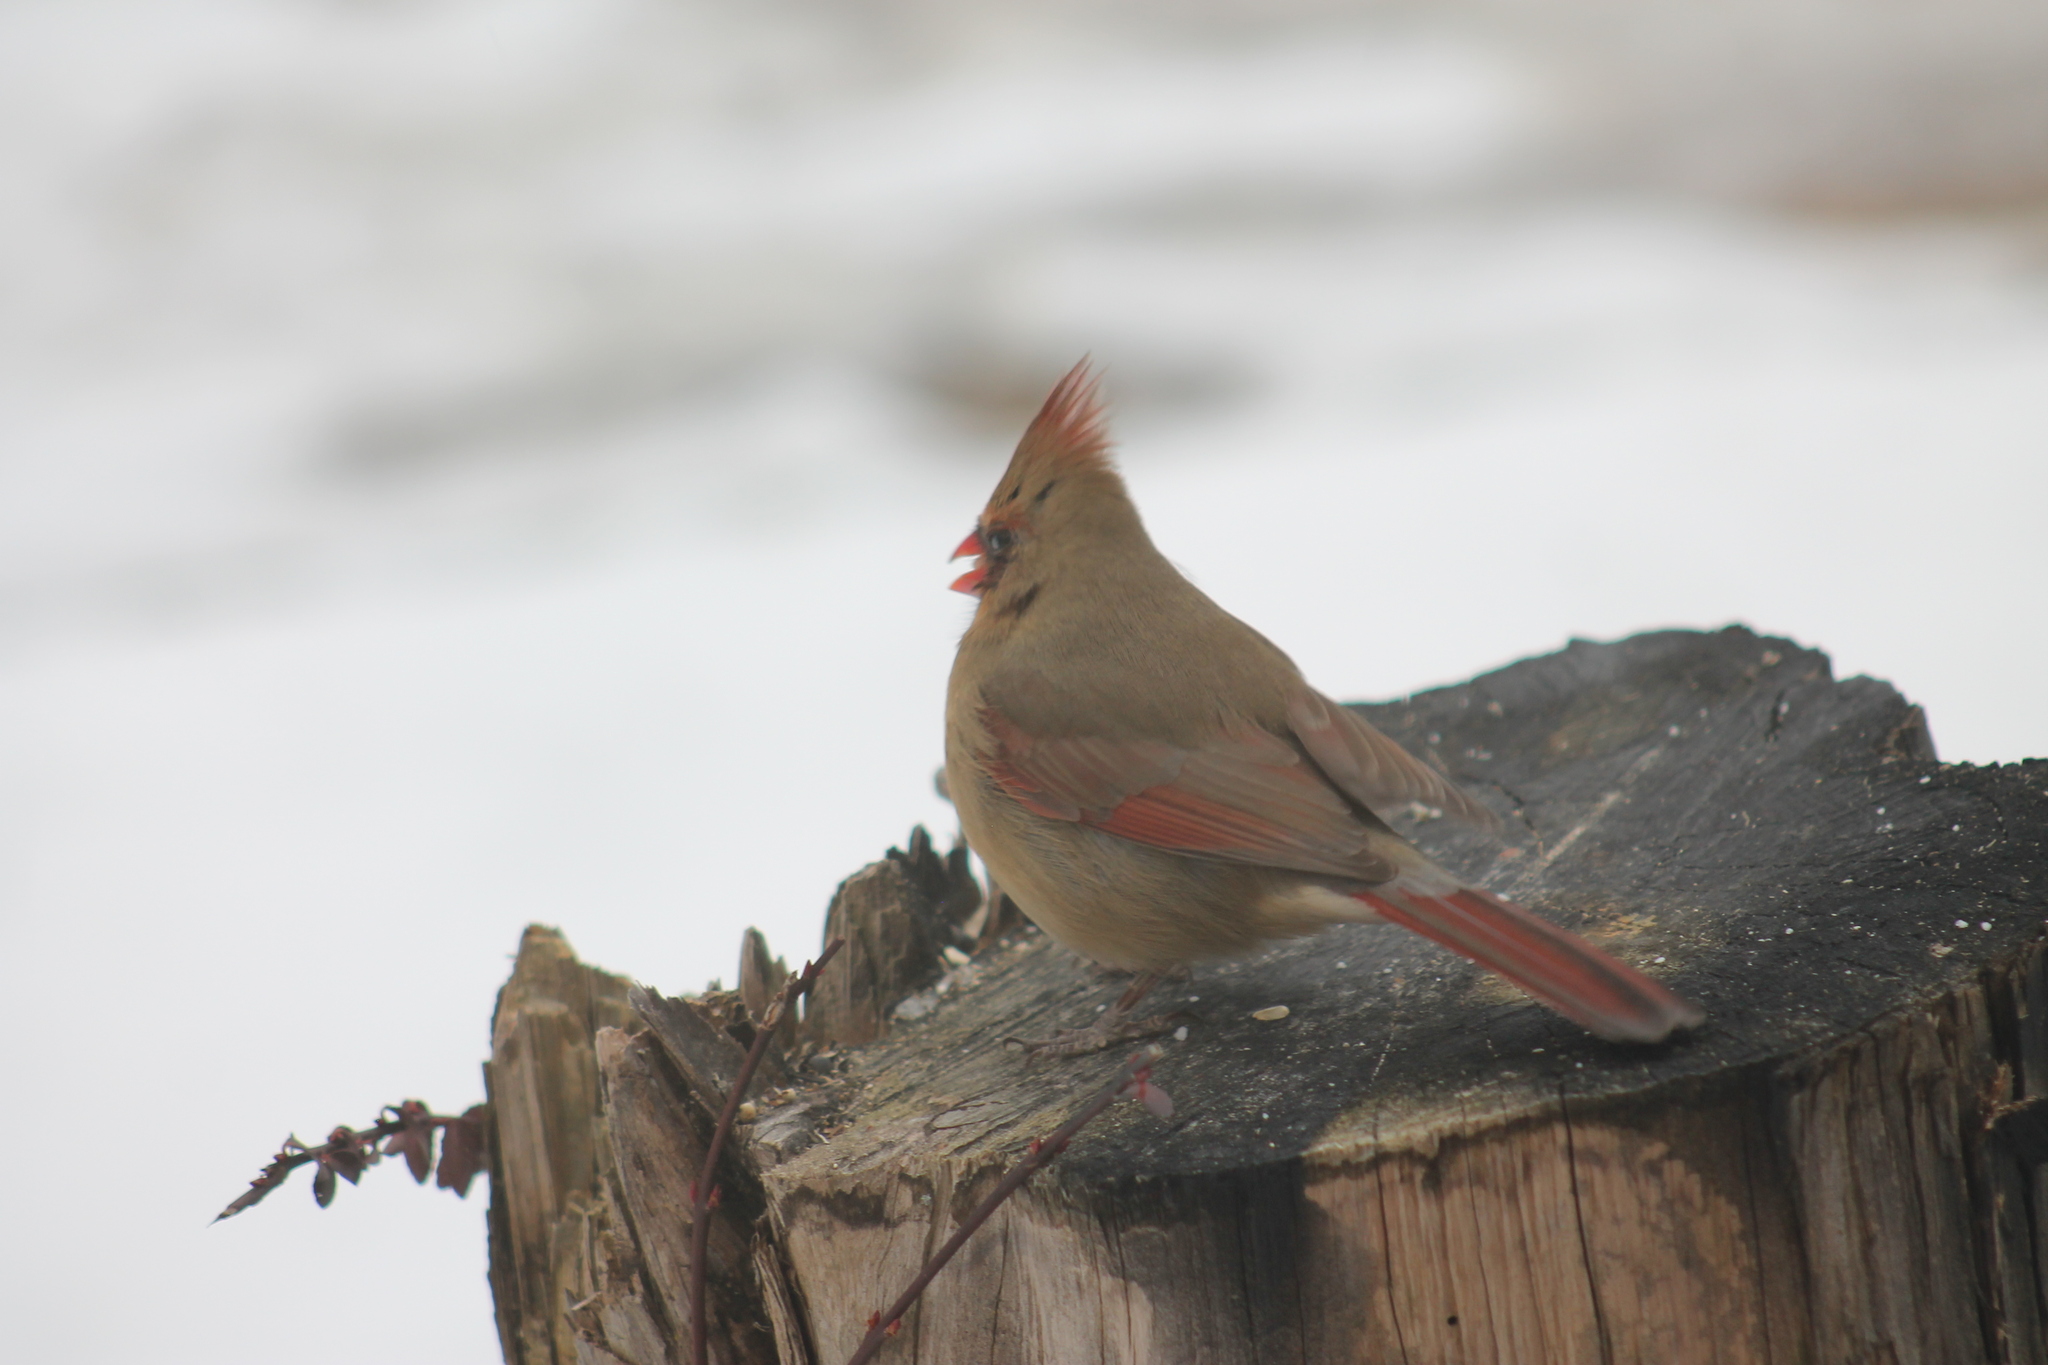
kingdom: Animalia
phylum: Chordata
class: Aves
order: Passeriformes
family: Cardinalidae
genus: Cardinalis
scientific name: Cardinalis cardinalis
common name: Northern cardinal
